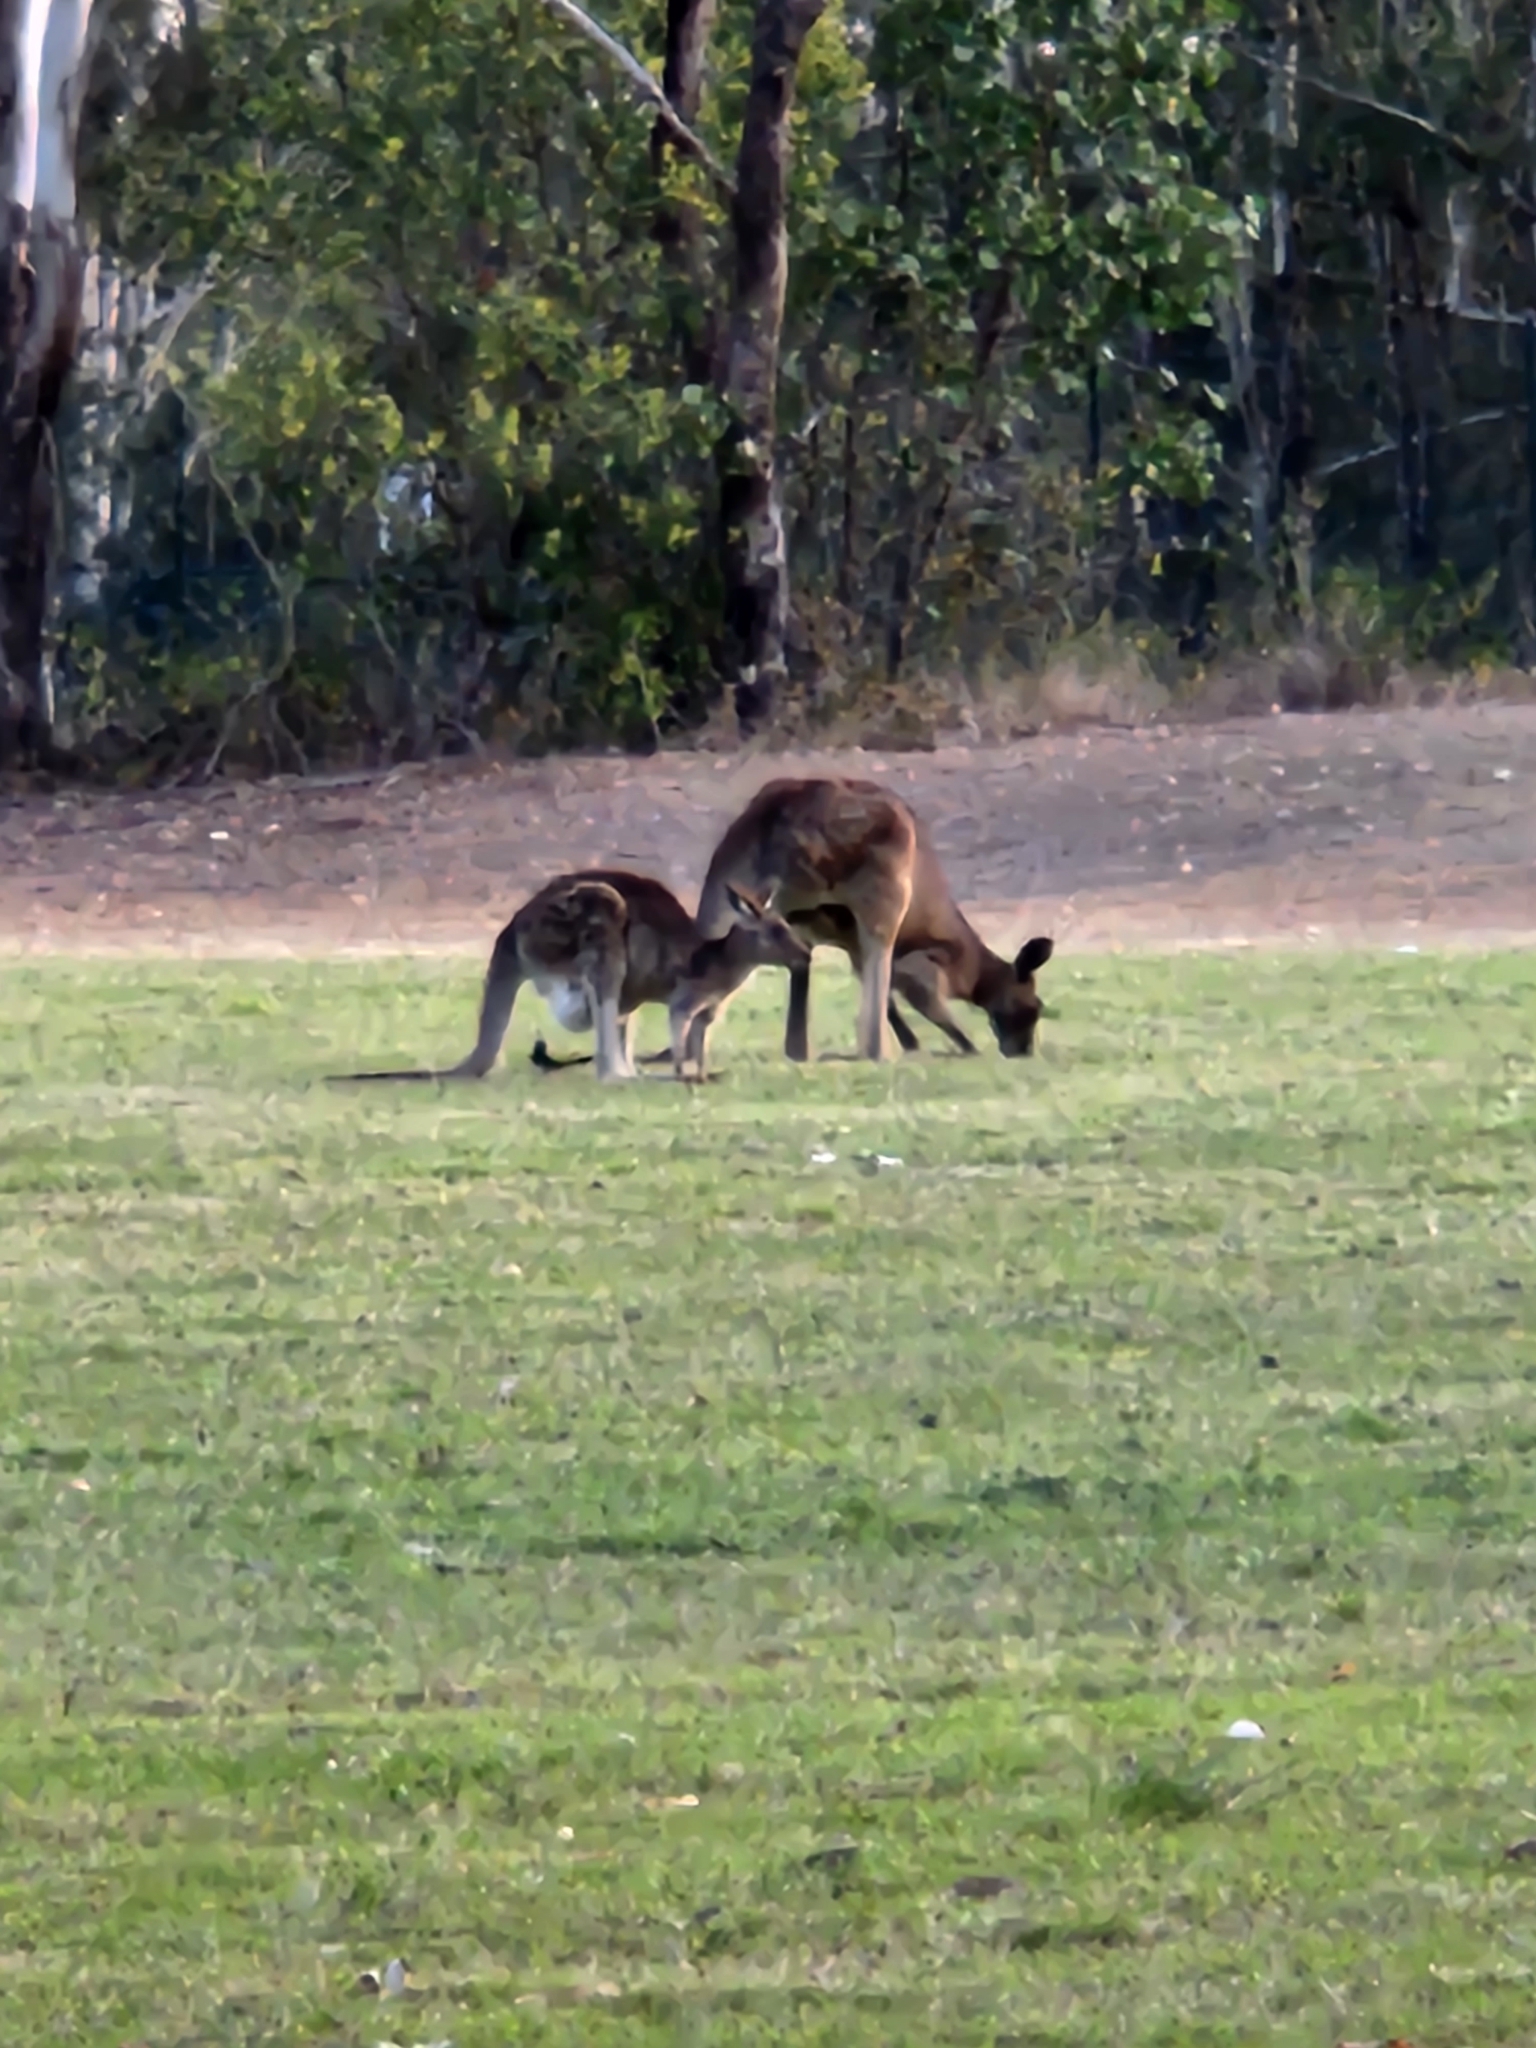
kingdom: Animalia
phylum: Chordata
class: Mammalia
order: Diprotodontia
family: Macropodidae
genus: Macropus
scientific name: Macropus giganteus
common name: Eastern grey kangaroo
